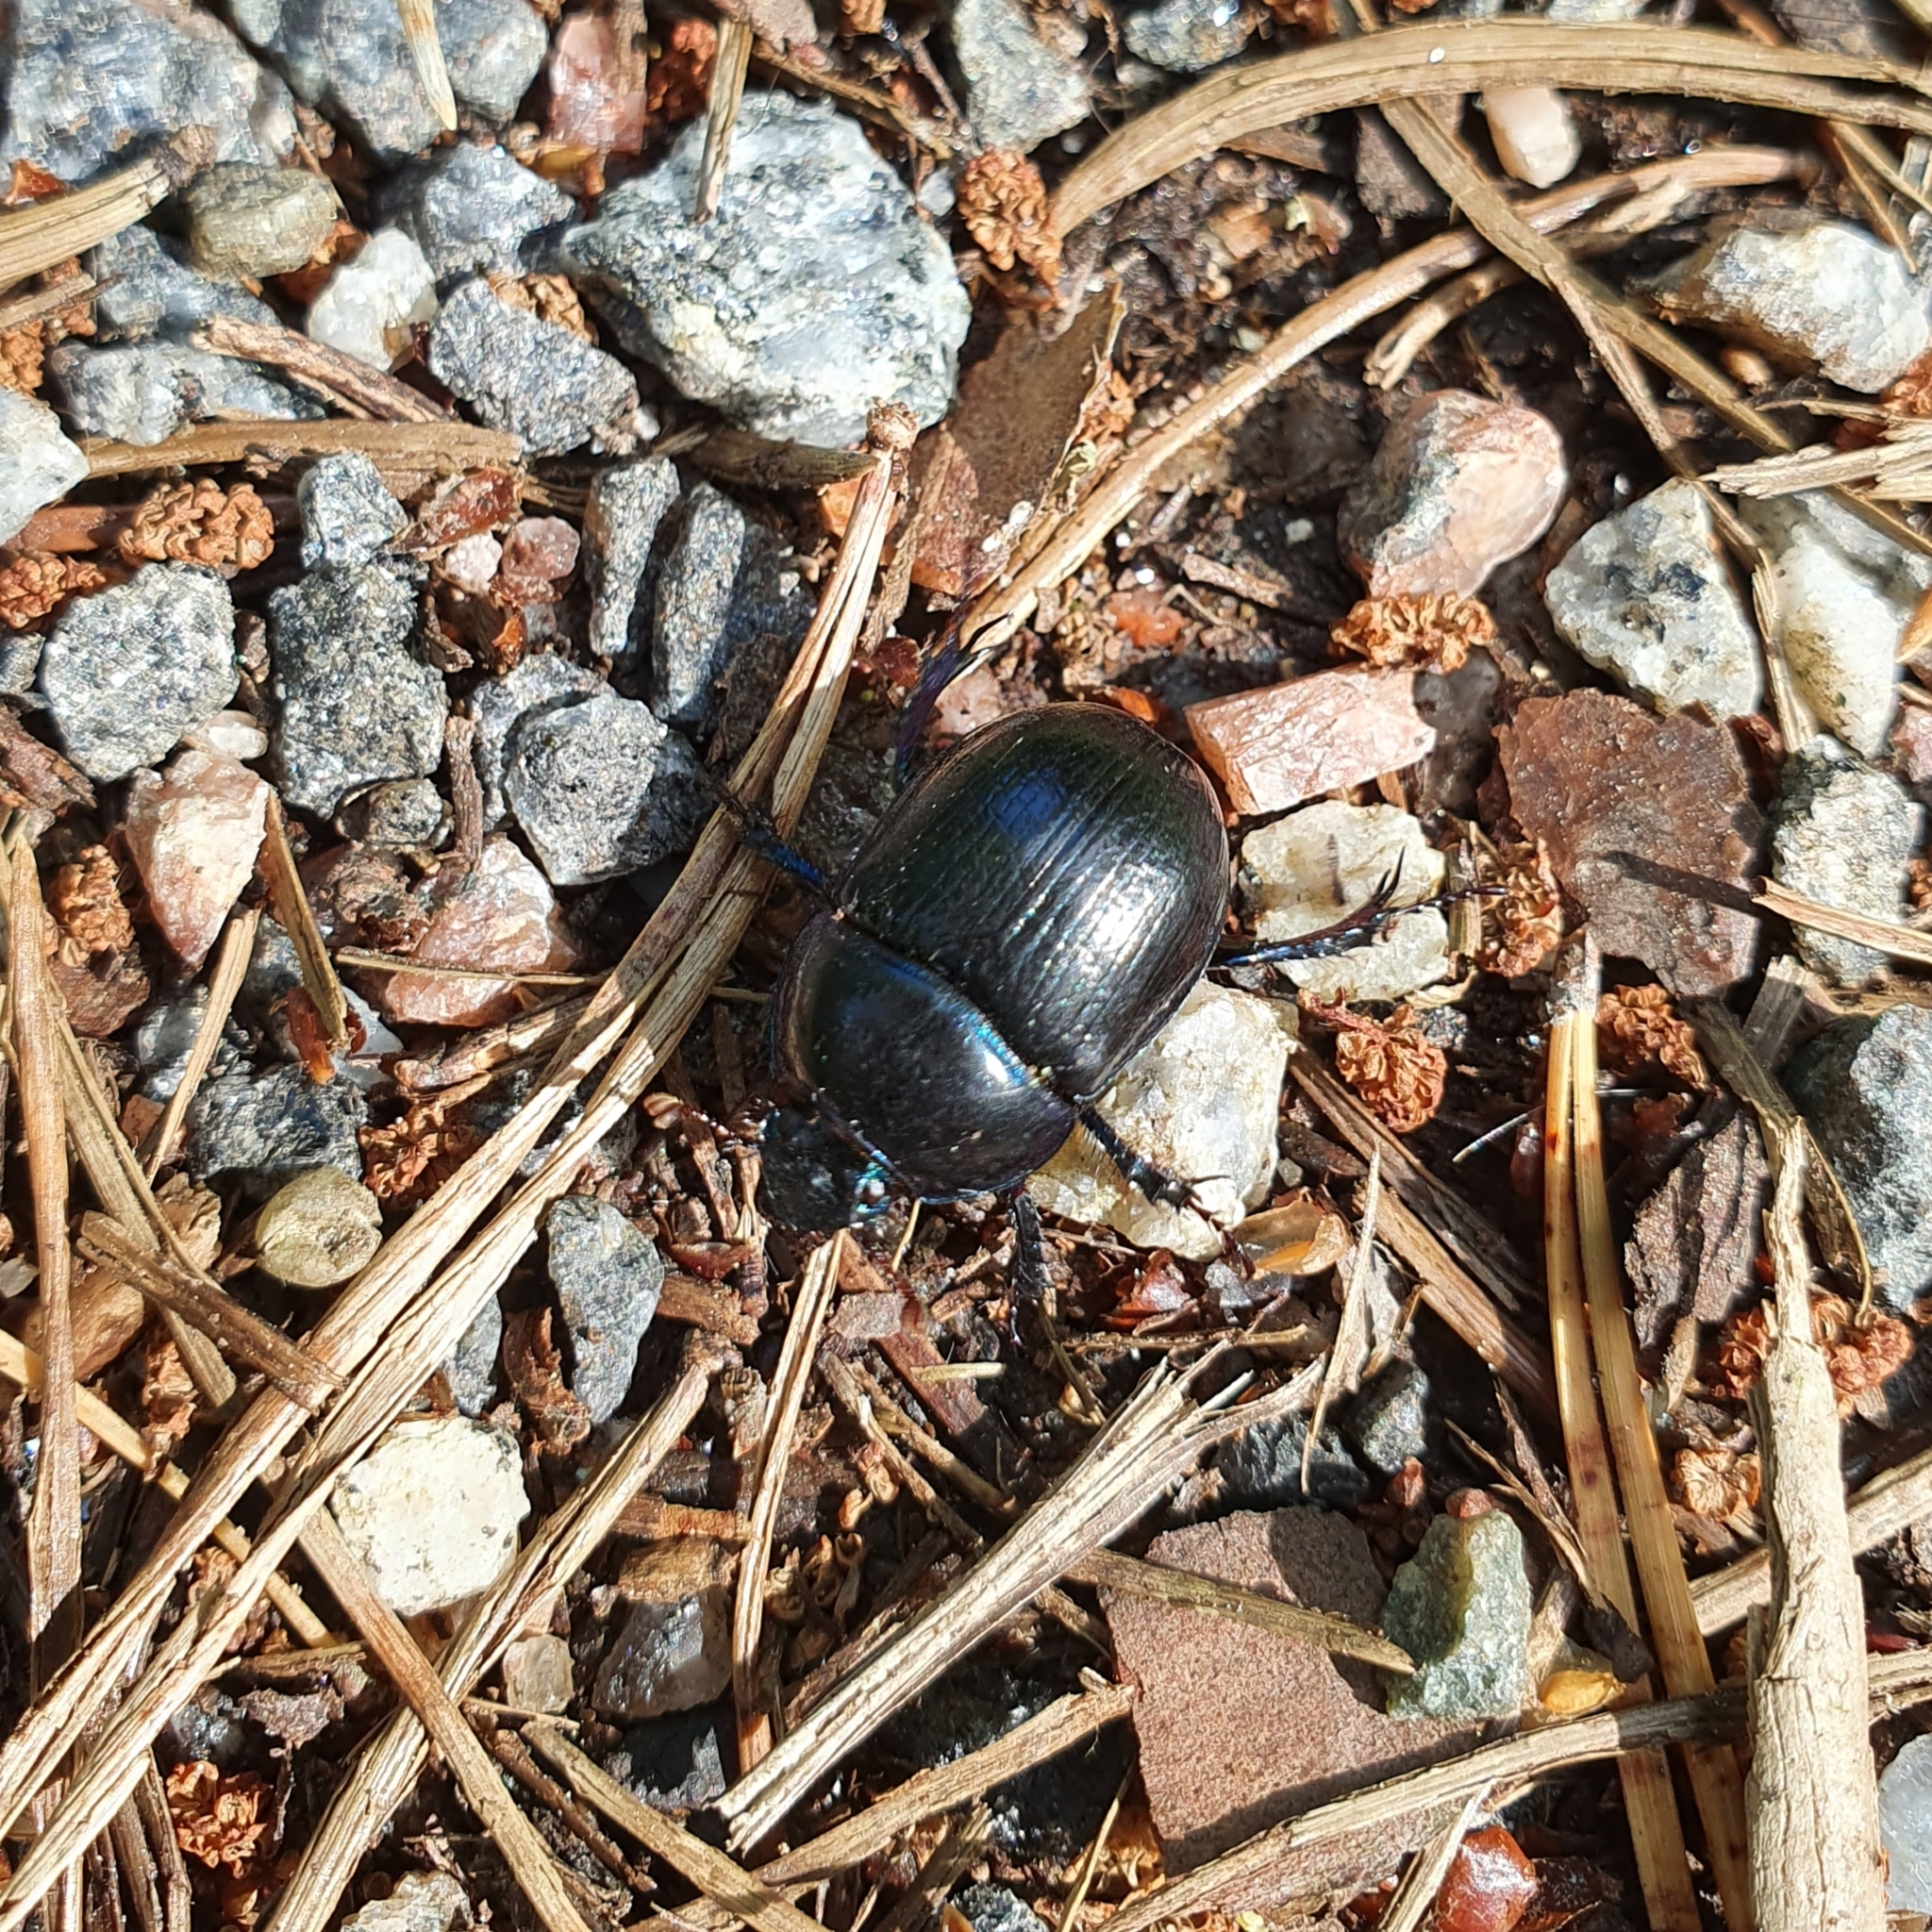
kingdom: Animalia
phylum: Arthropoda
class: Insecta
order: Coleoptera
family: Geotrupidae
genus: Anoplotrupes
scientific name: Anoplotrupes stercorosus
